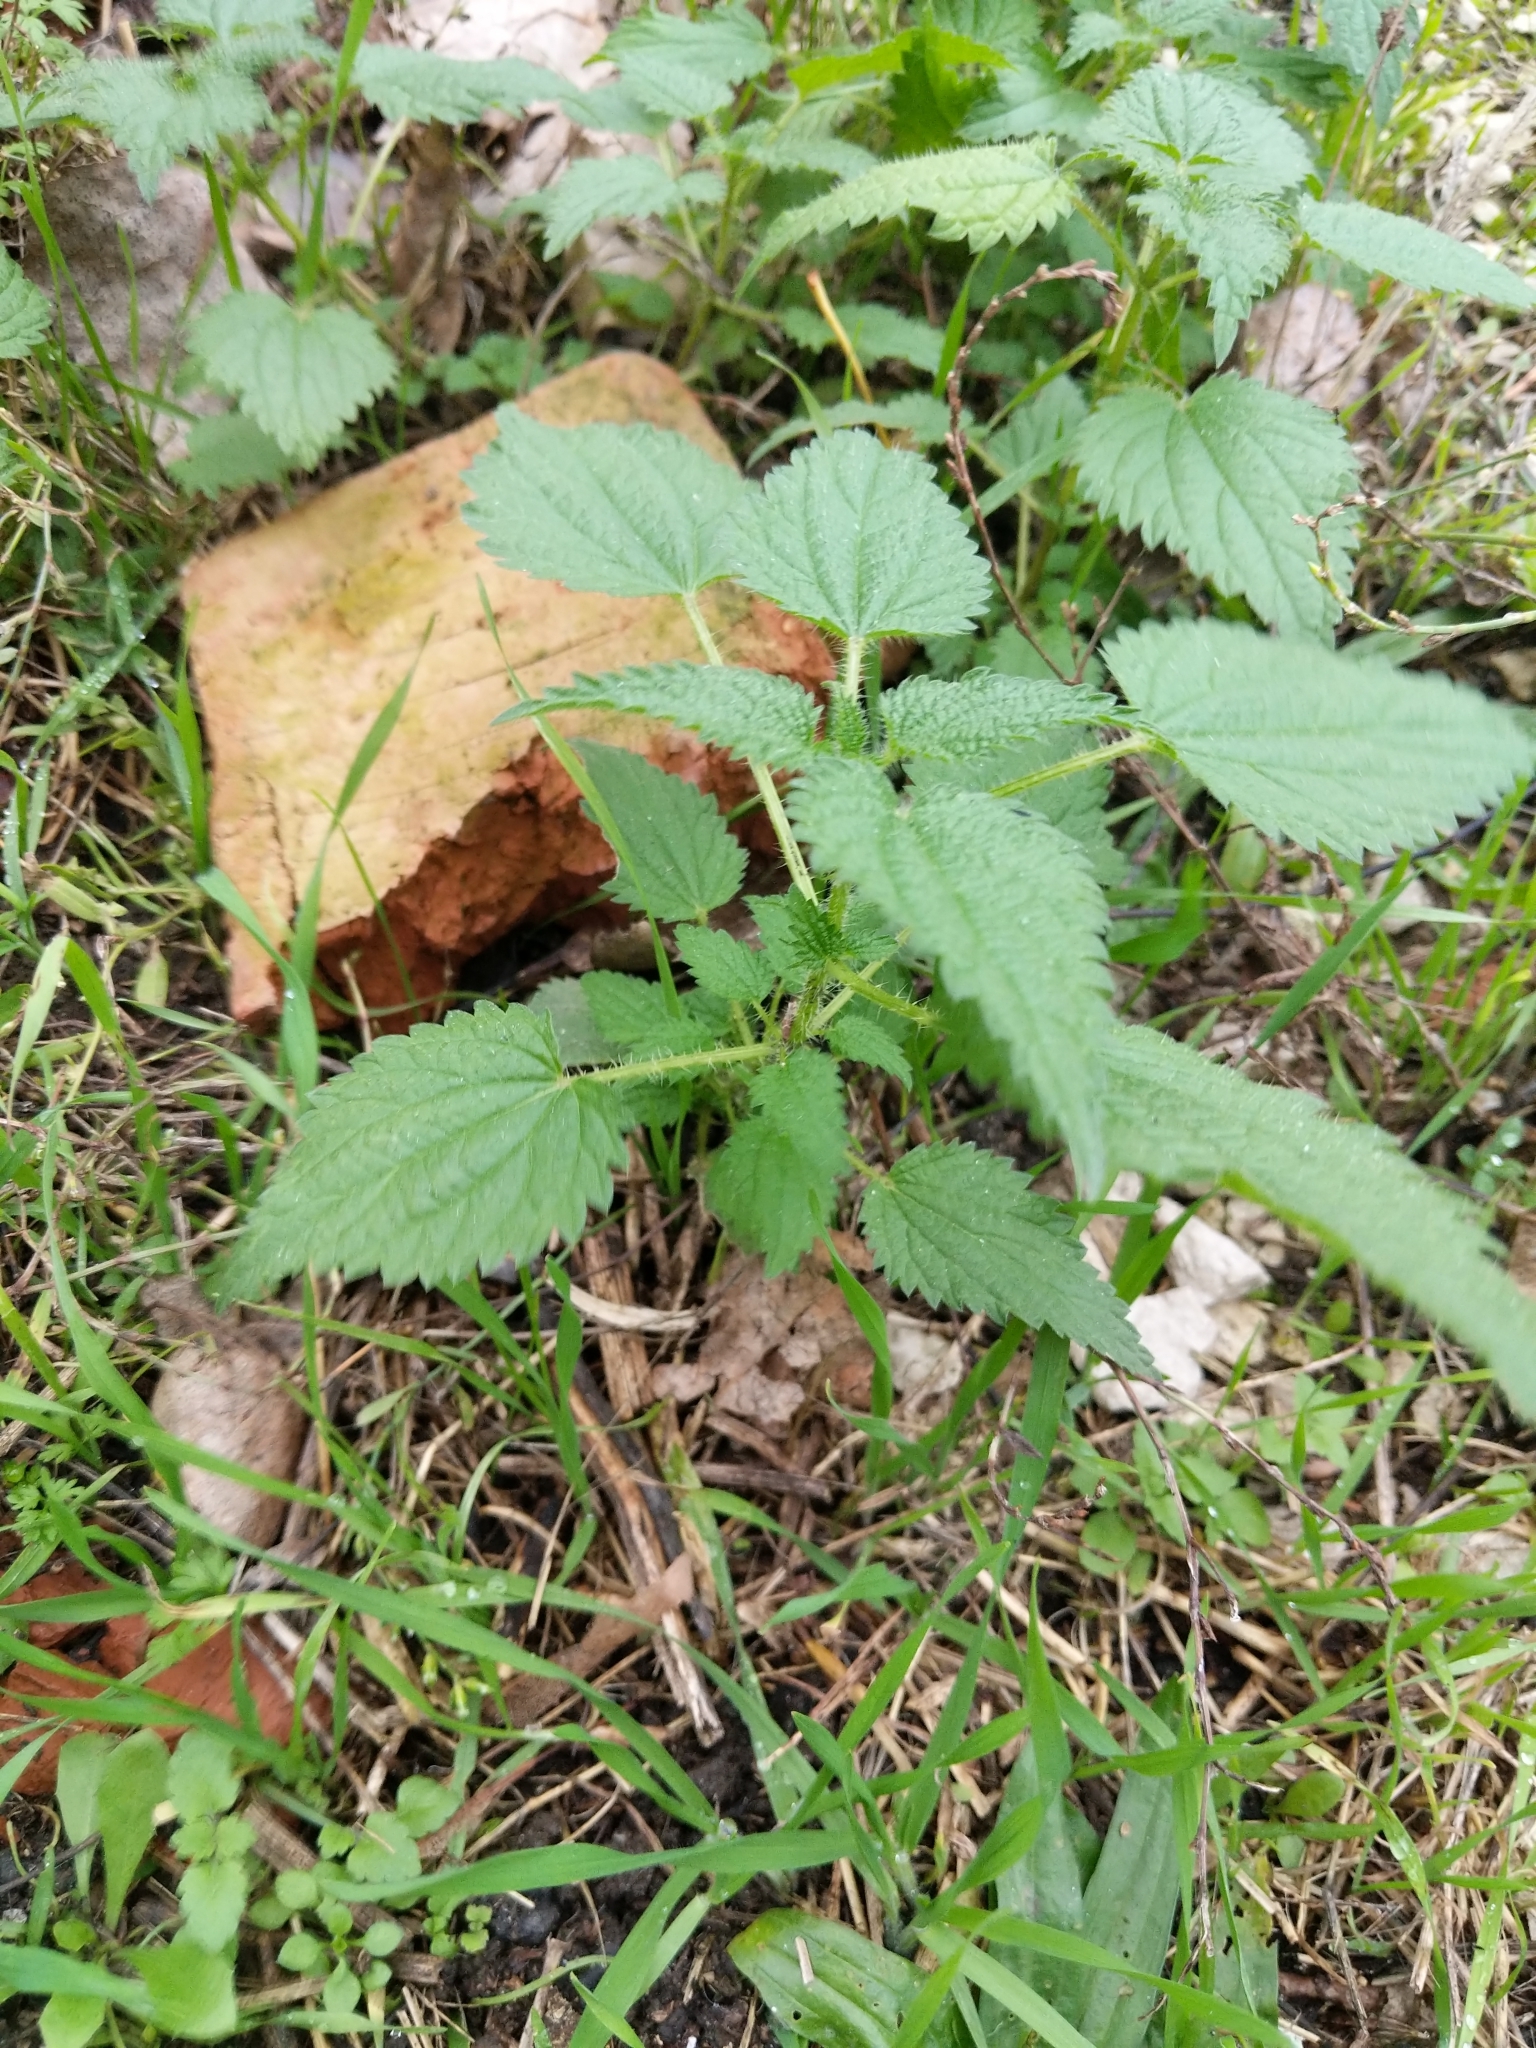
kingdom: Plantae
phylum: Tracheophyta
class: Magnoliopsida
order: Rosales
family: Urticaceae
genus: Urtica
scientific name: Urtica dioica
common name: Common nettle
